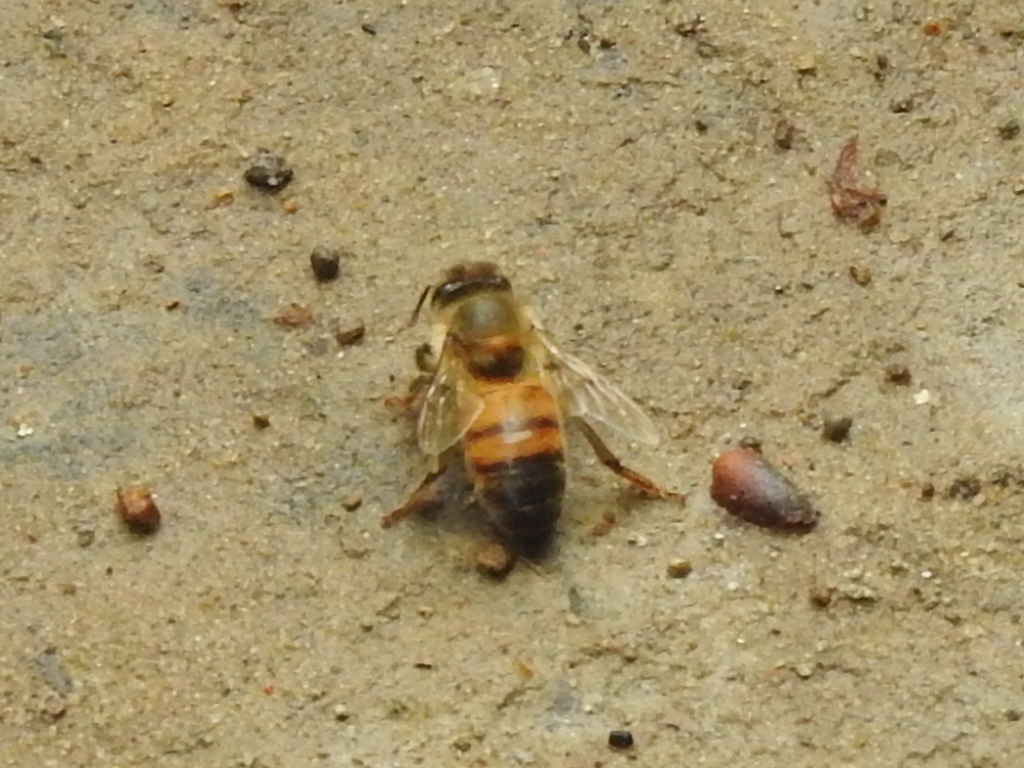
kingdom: Animalia
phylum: Arthropoda
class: Insecta
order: Hymenoptera
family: Apidae
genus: Apis
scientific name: Apis mellifera
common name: Honey bee
